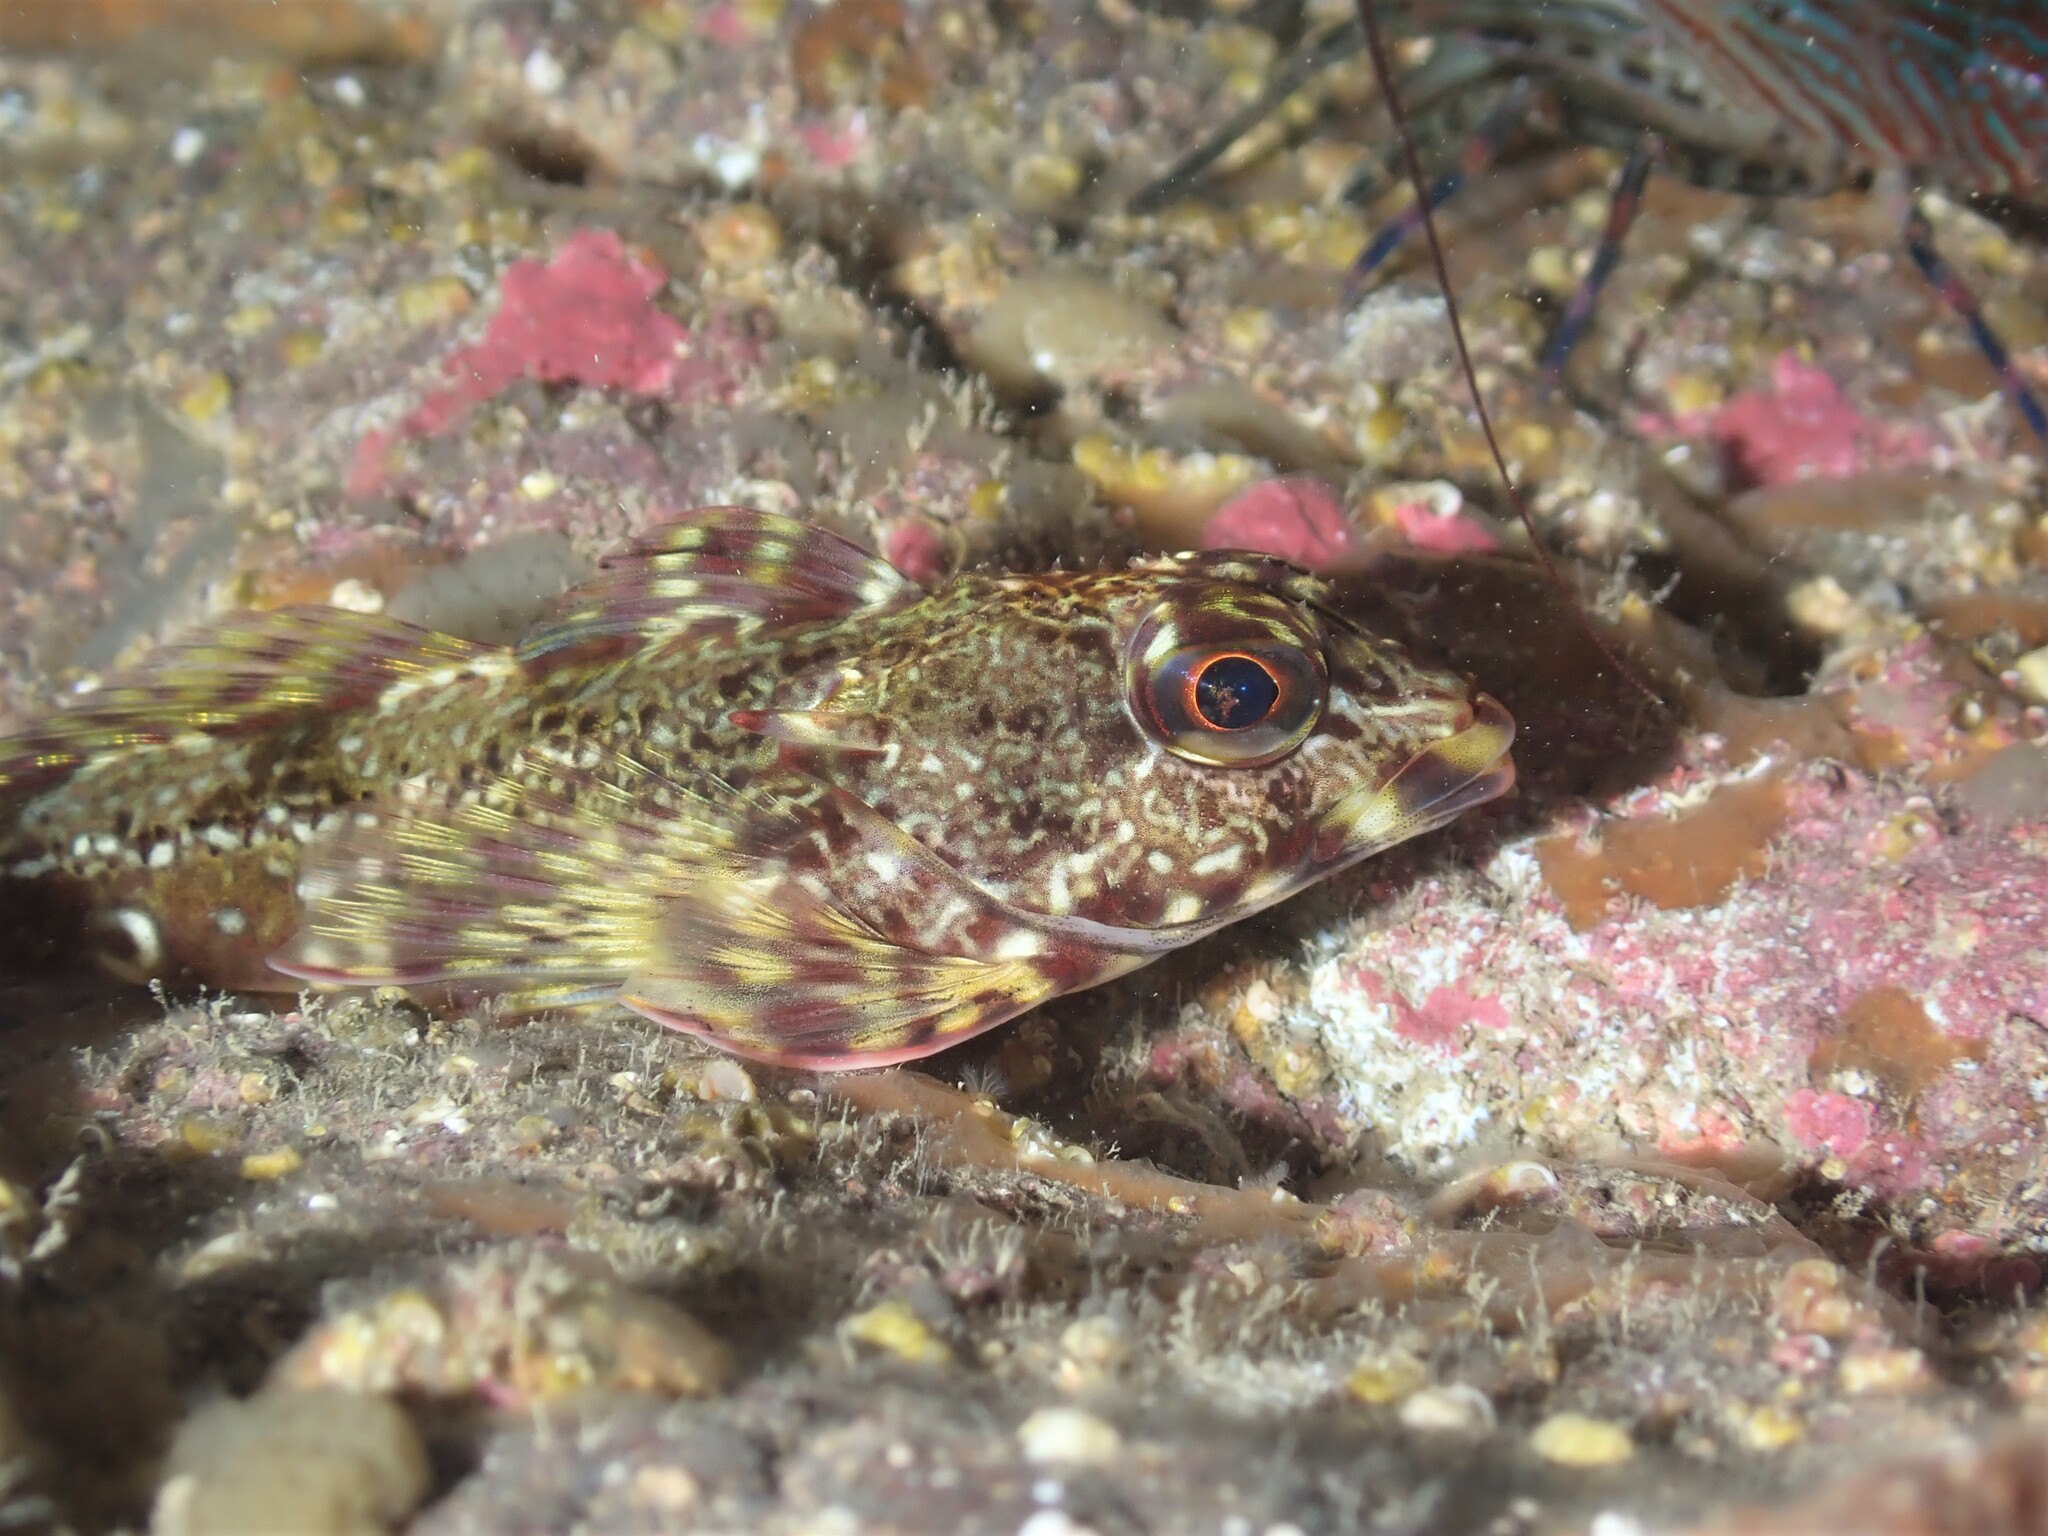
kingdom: Animalia
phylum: Chordata
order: Perciformes
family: Bovichtidae
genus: Bovichtus
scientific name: Bovichtus variegatus
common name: Thornfish
